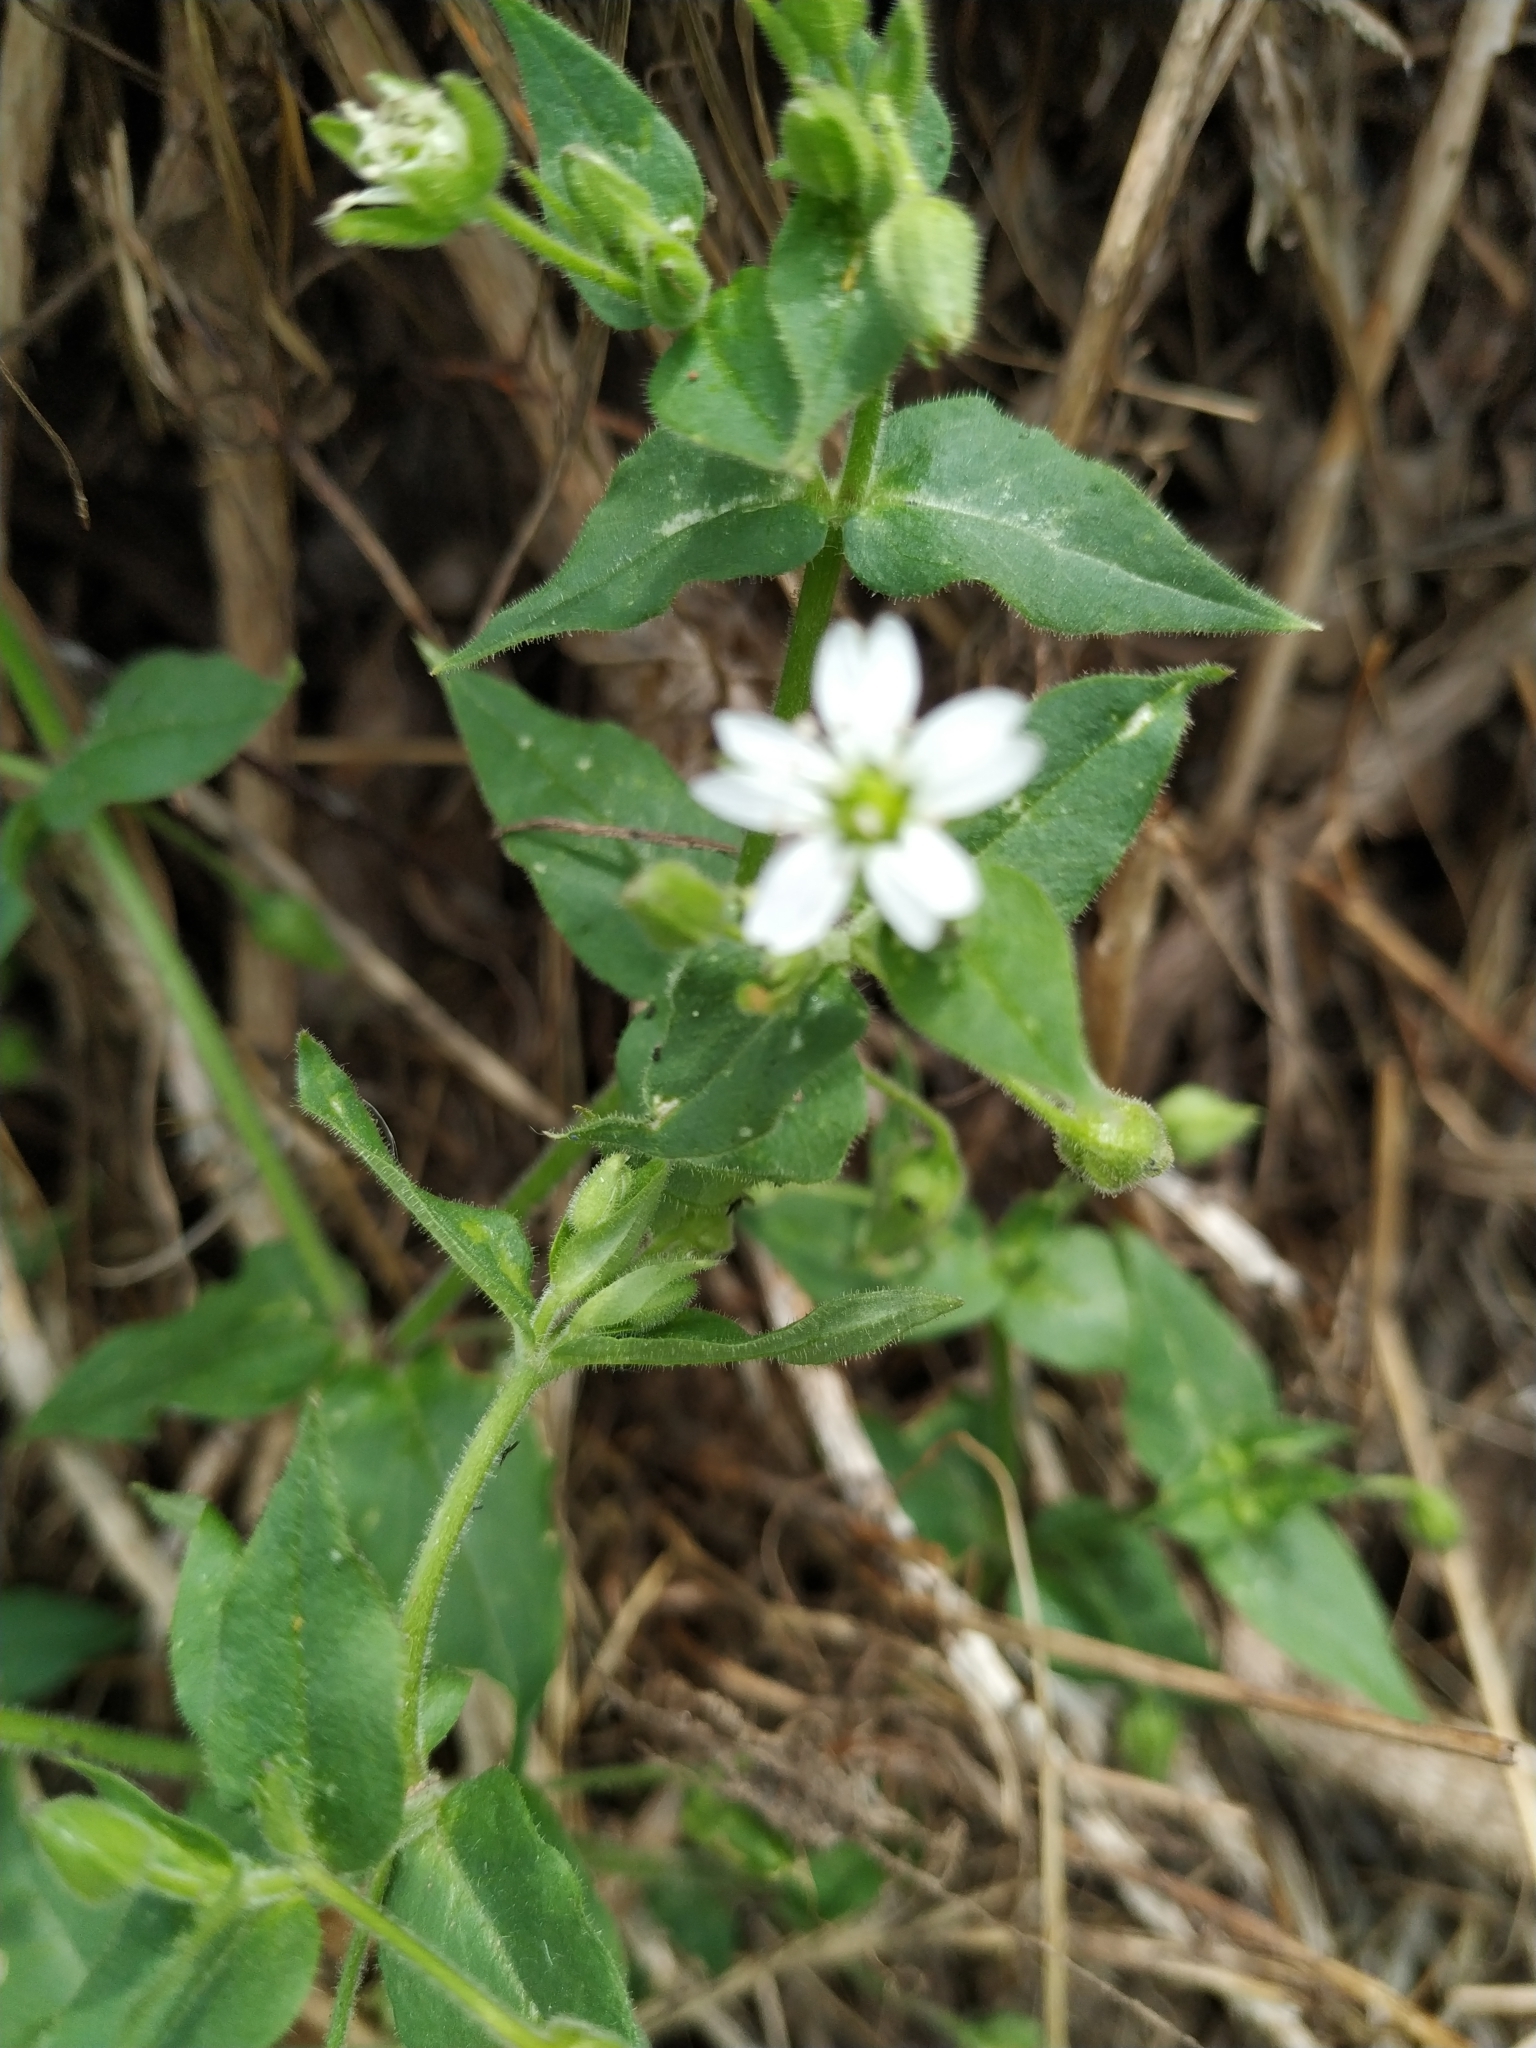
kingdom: Plantae
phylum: Tracheophyta
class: Magnoliopsida
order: Caryophyllales
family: Caryophyllaceae
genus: Stellaria
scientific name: Stellaria aquatica
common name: Water chickweed
